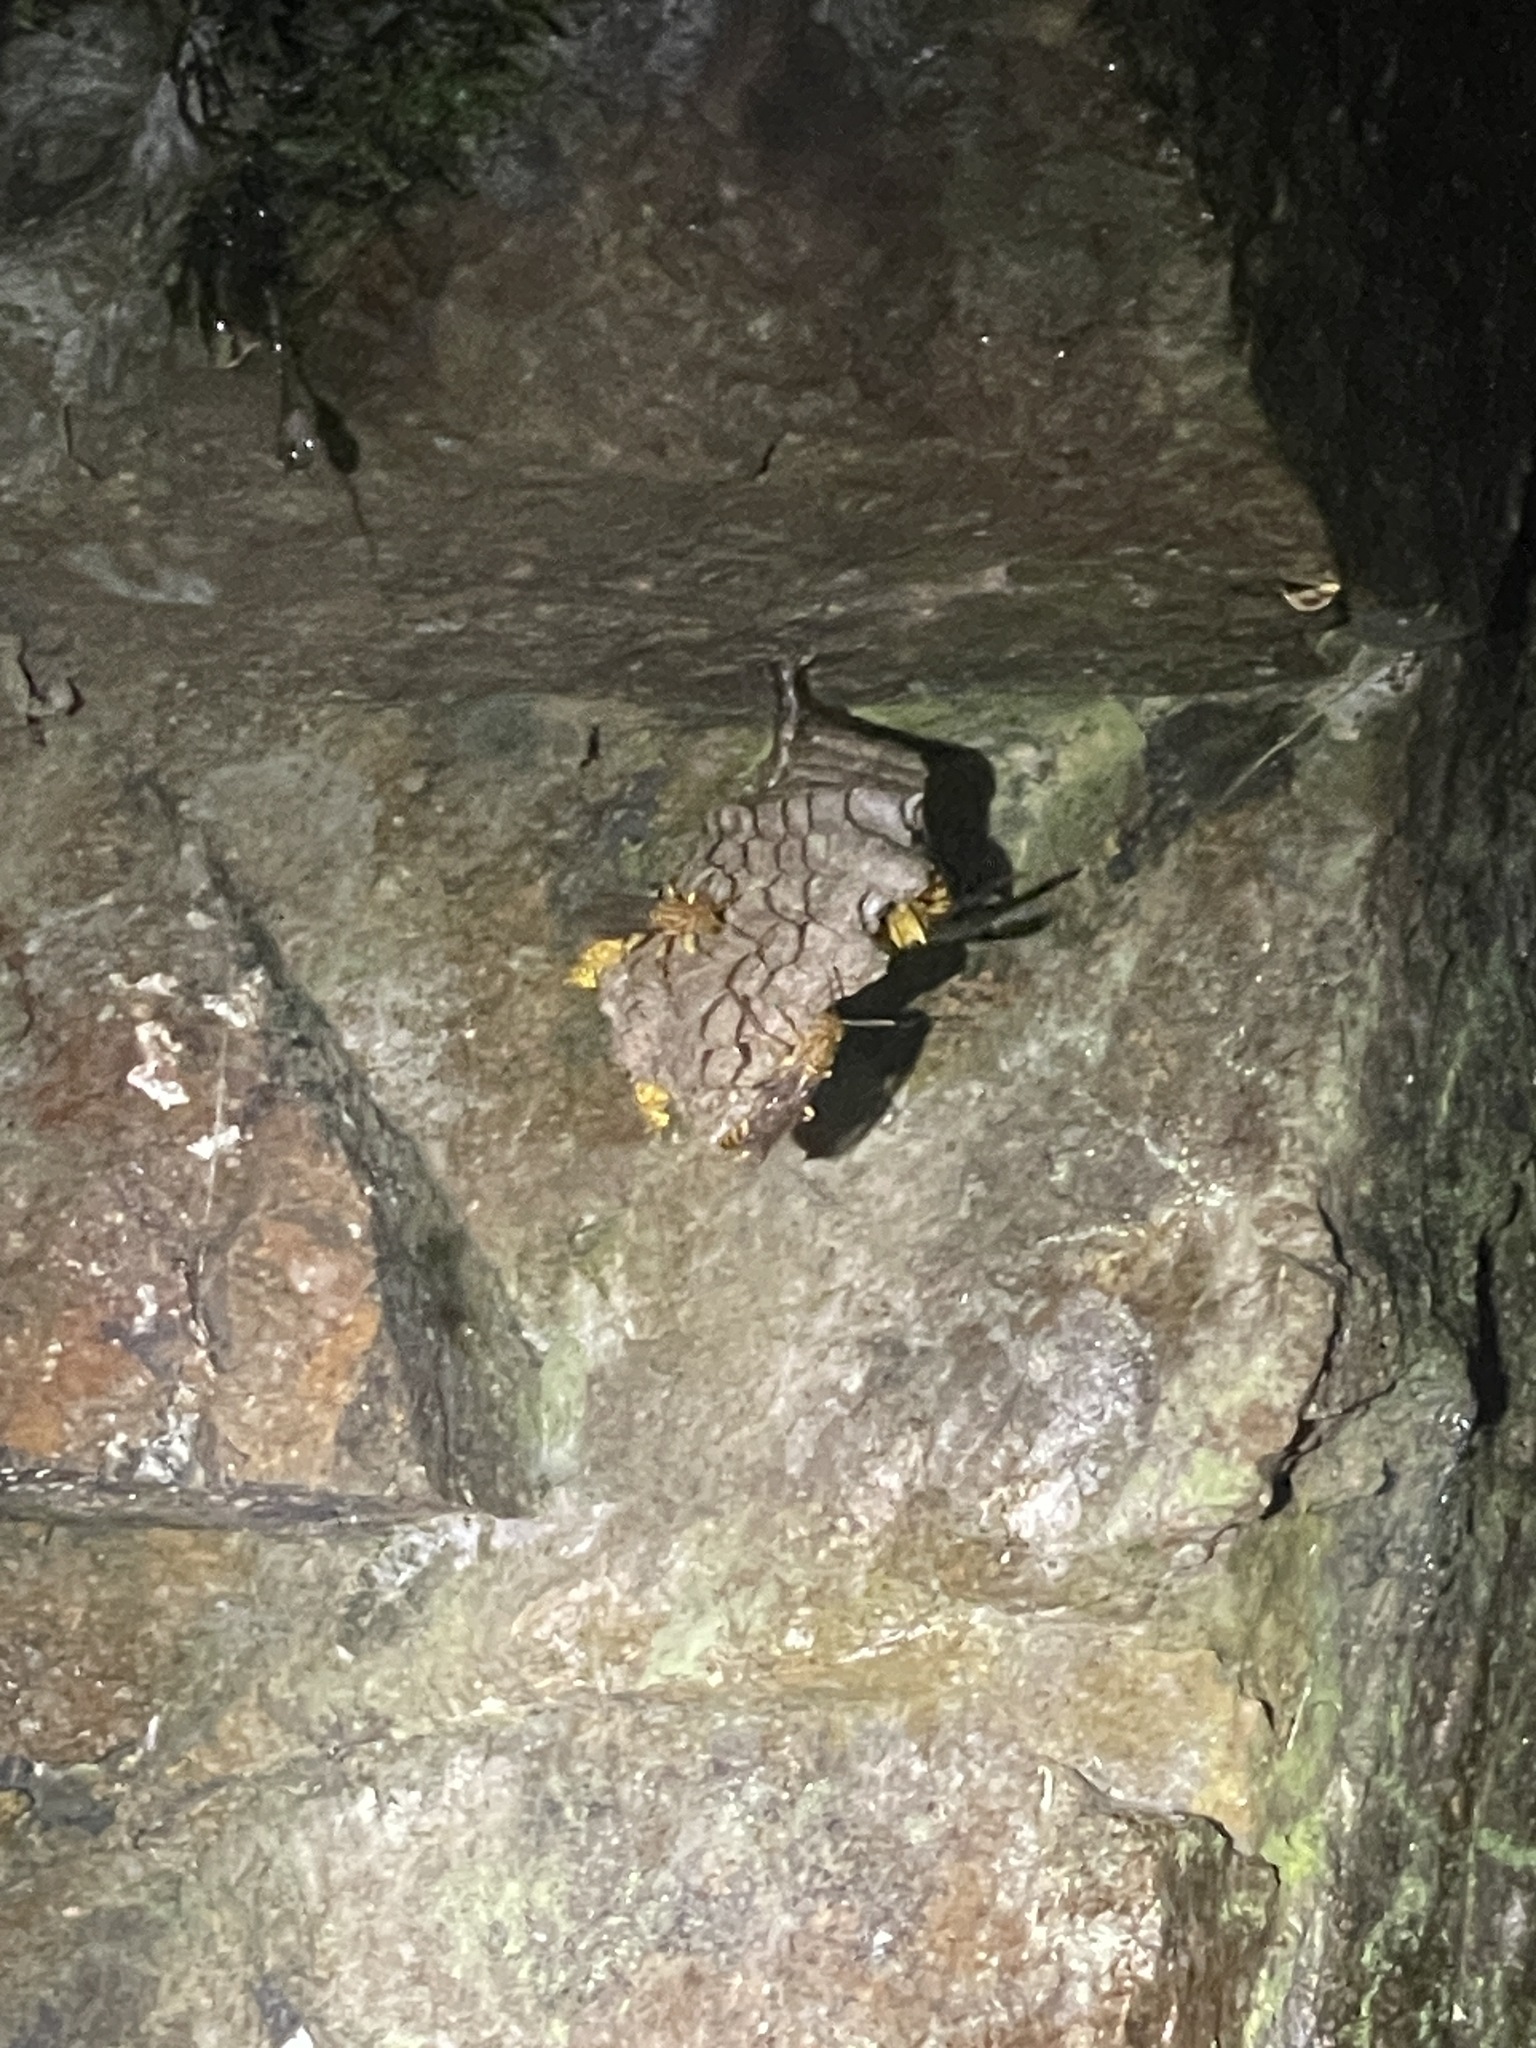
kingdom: Animalia
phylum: Arthropoda
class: Insecta
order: Hymenoptera
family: Vespidae
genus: Parapolybia
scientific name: Parapolybia
